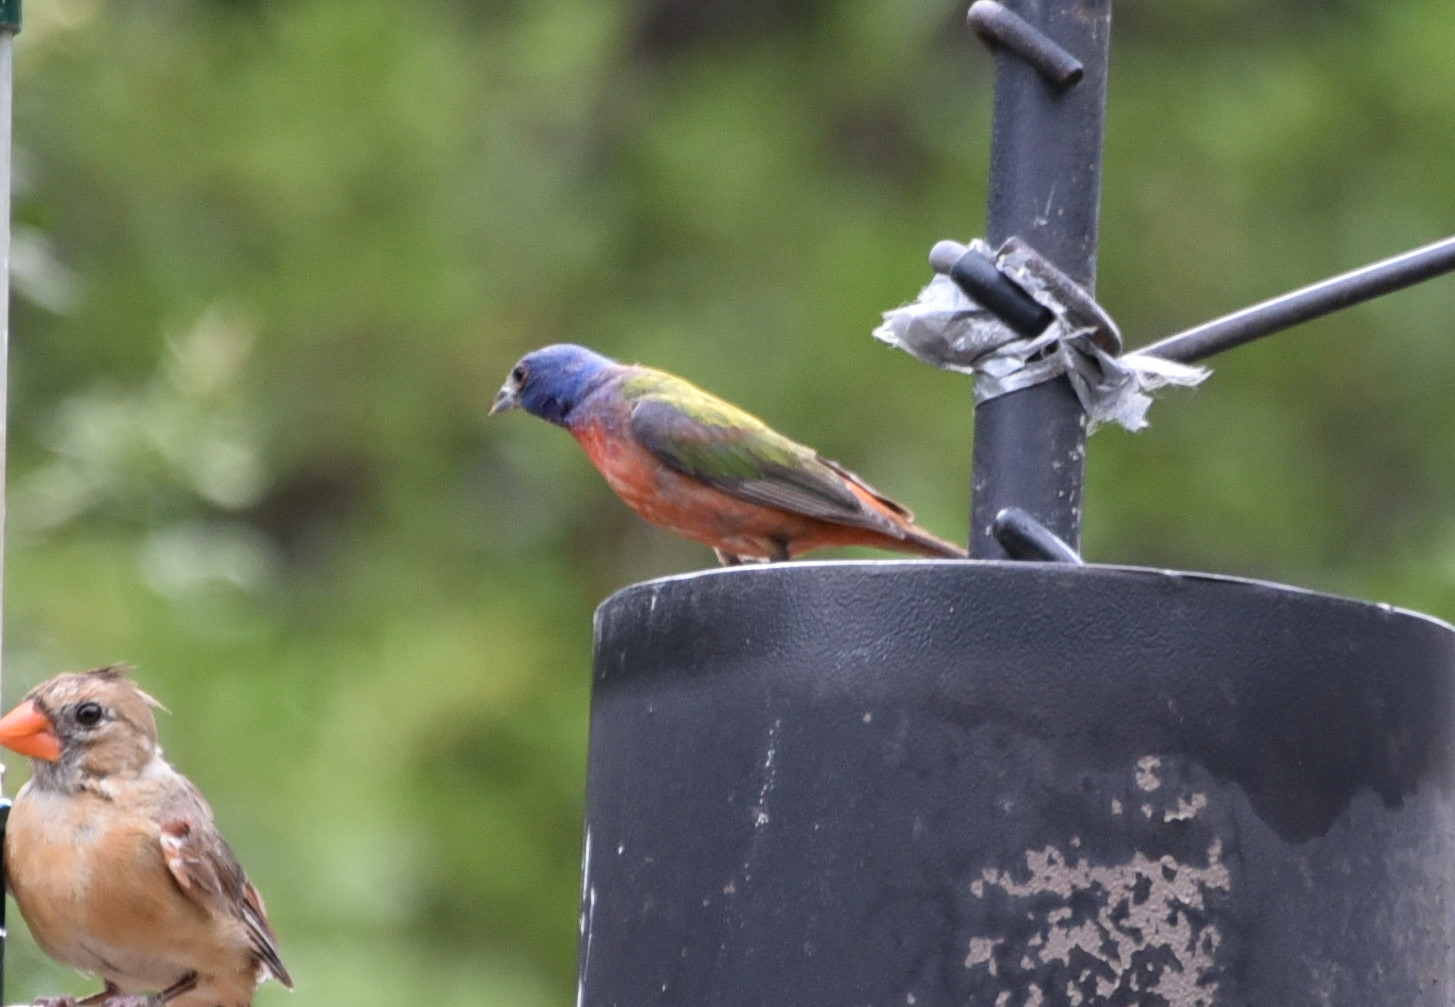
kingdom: Animalia
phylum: Chordata
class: Aves
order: Passeriformes
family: Cardinalidae
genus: Passerina
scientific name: Passerina ciris
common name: Painted bunting
